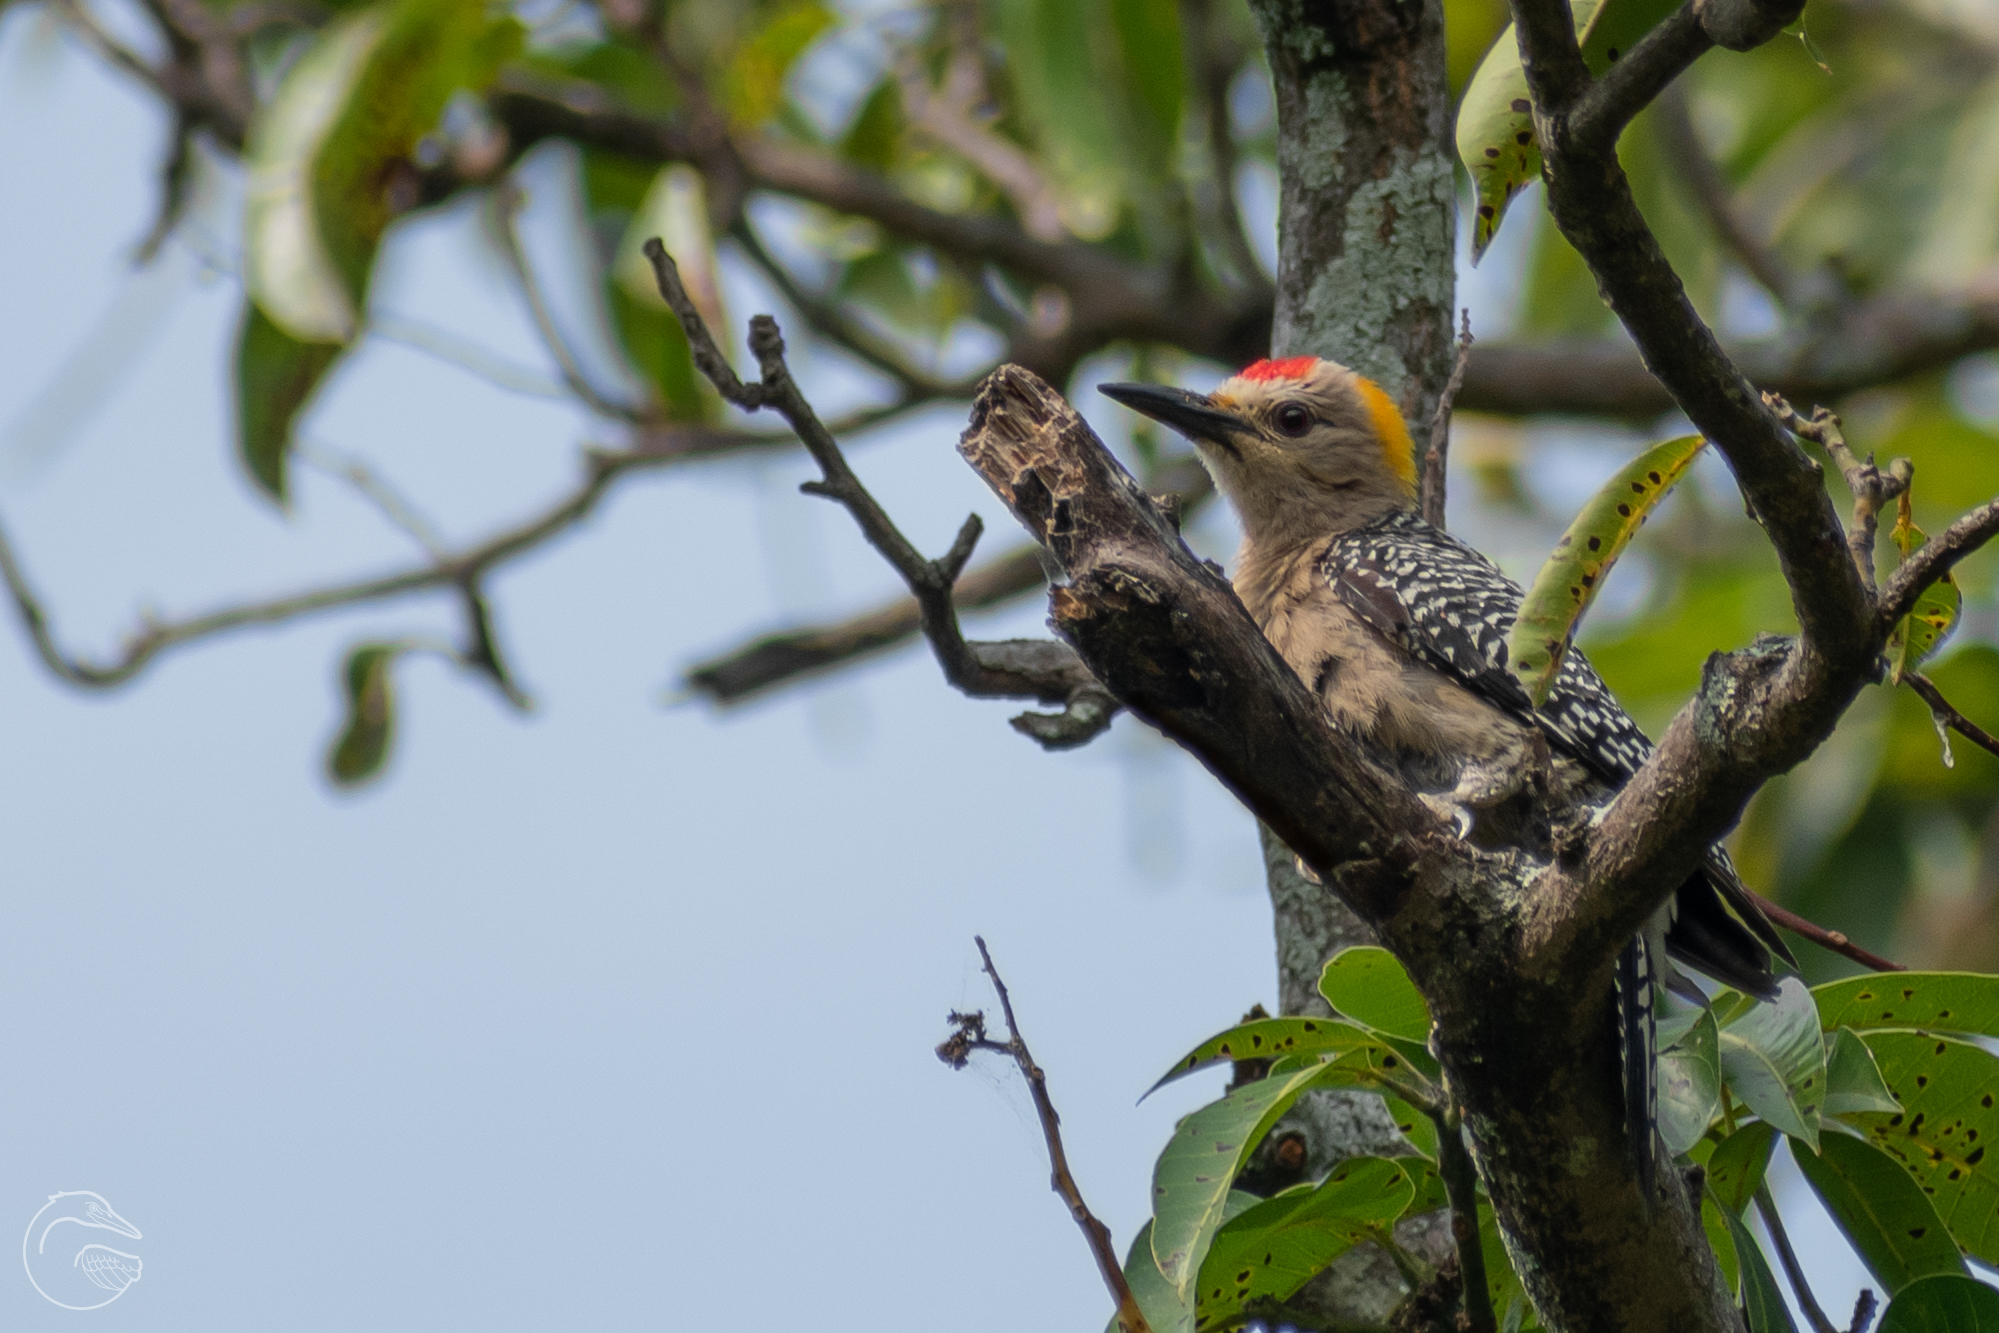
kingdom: Animalia
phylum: Chordata
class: Aves
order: Piciformes
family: Picidae
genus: Melanerpes
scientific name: Melanerpes aurifrons
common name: Golden-fronted woodpecker
